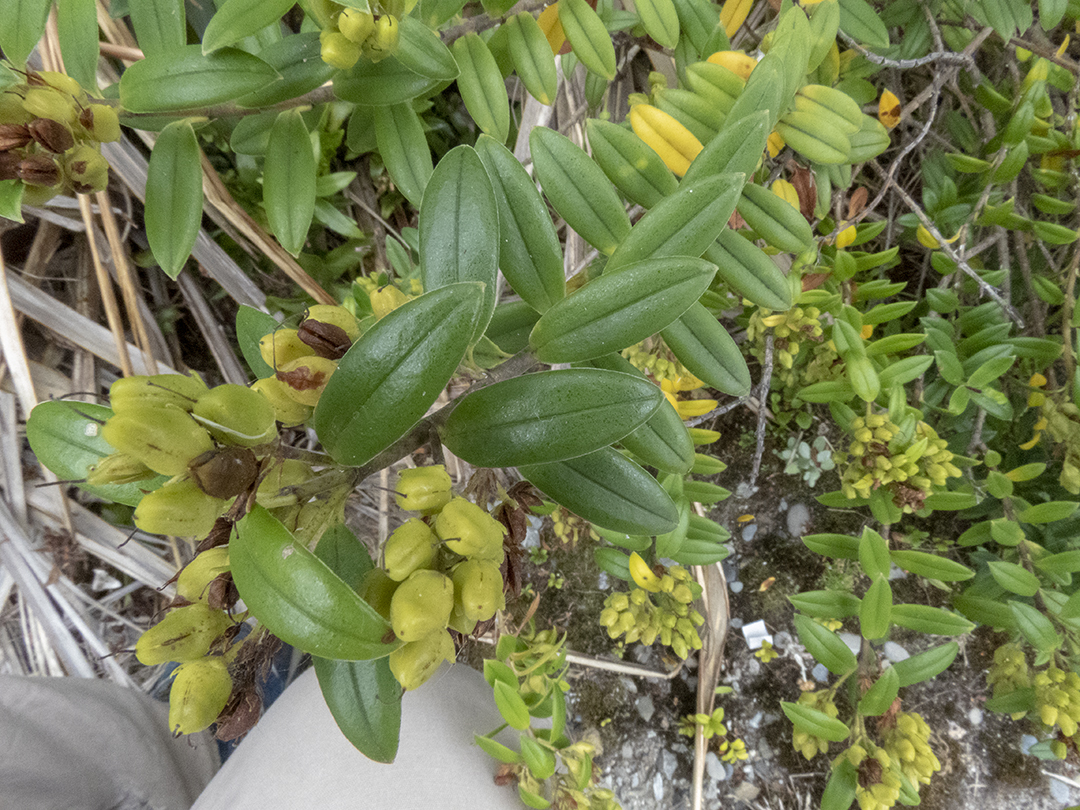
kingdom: Plantae
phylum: Tracheophyta
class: Magnoliopsida
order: Lamiales
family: Plantaginaceae
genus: Veronica
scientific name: Veronica elliptica
